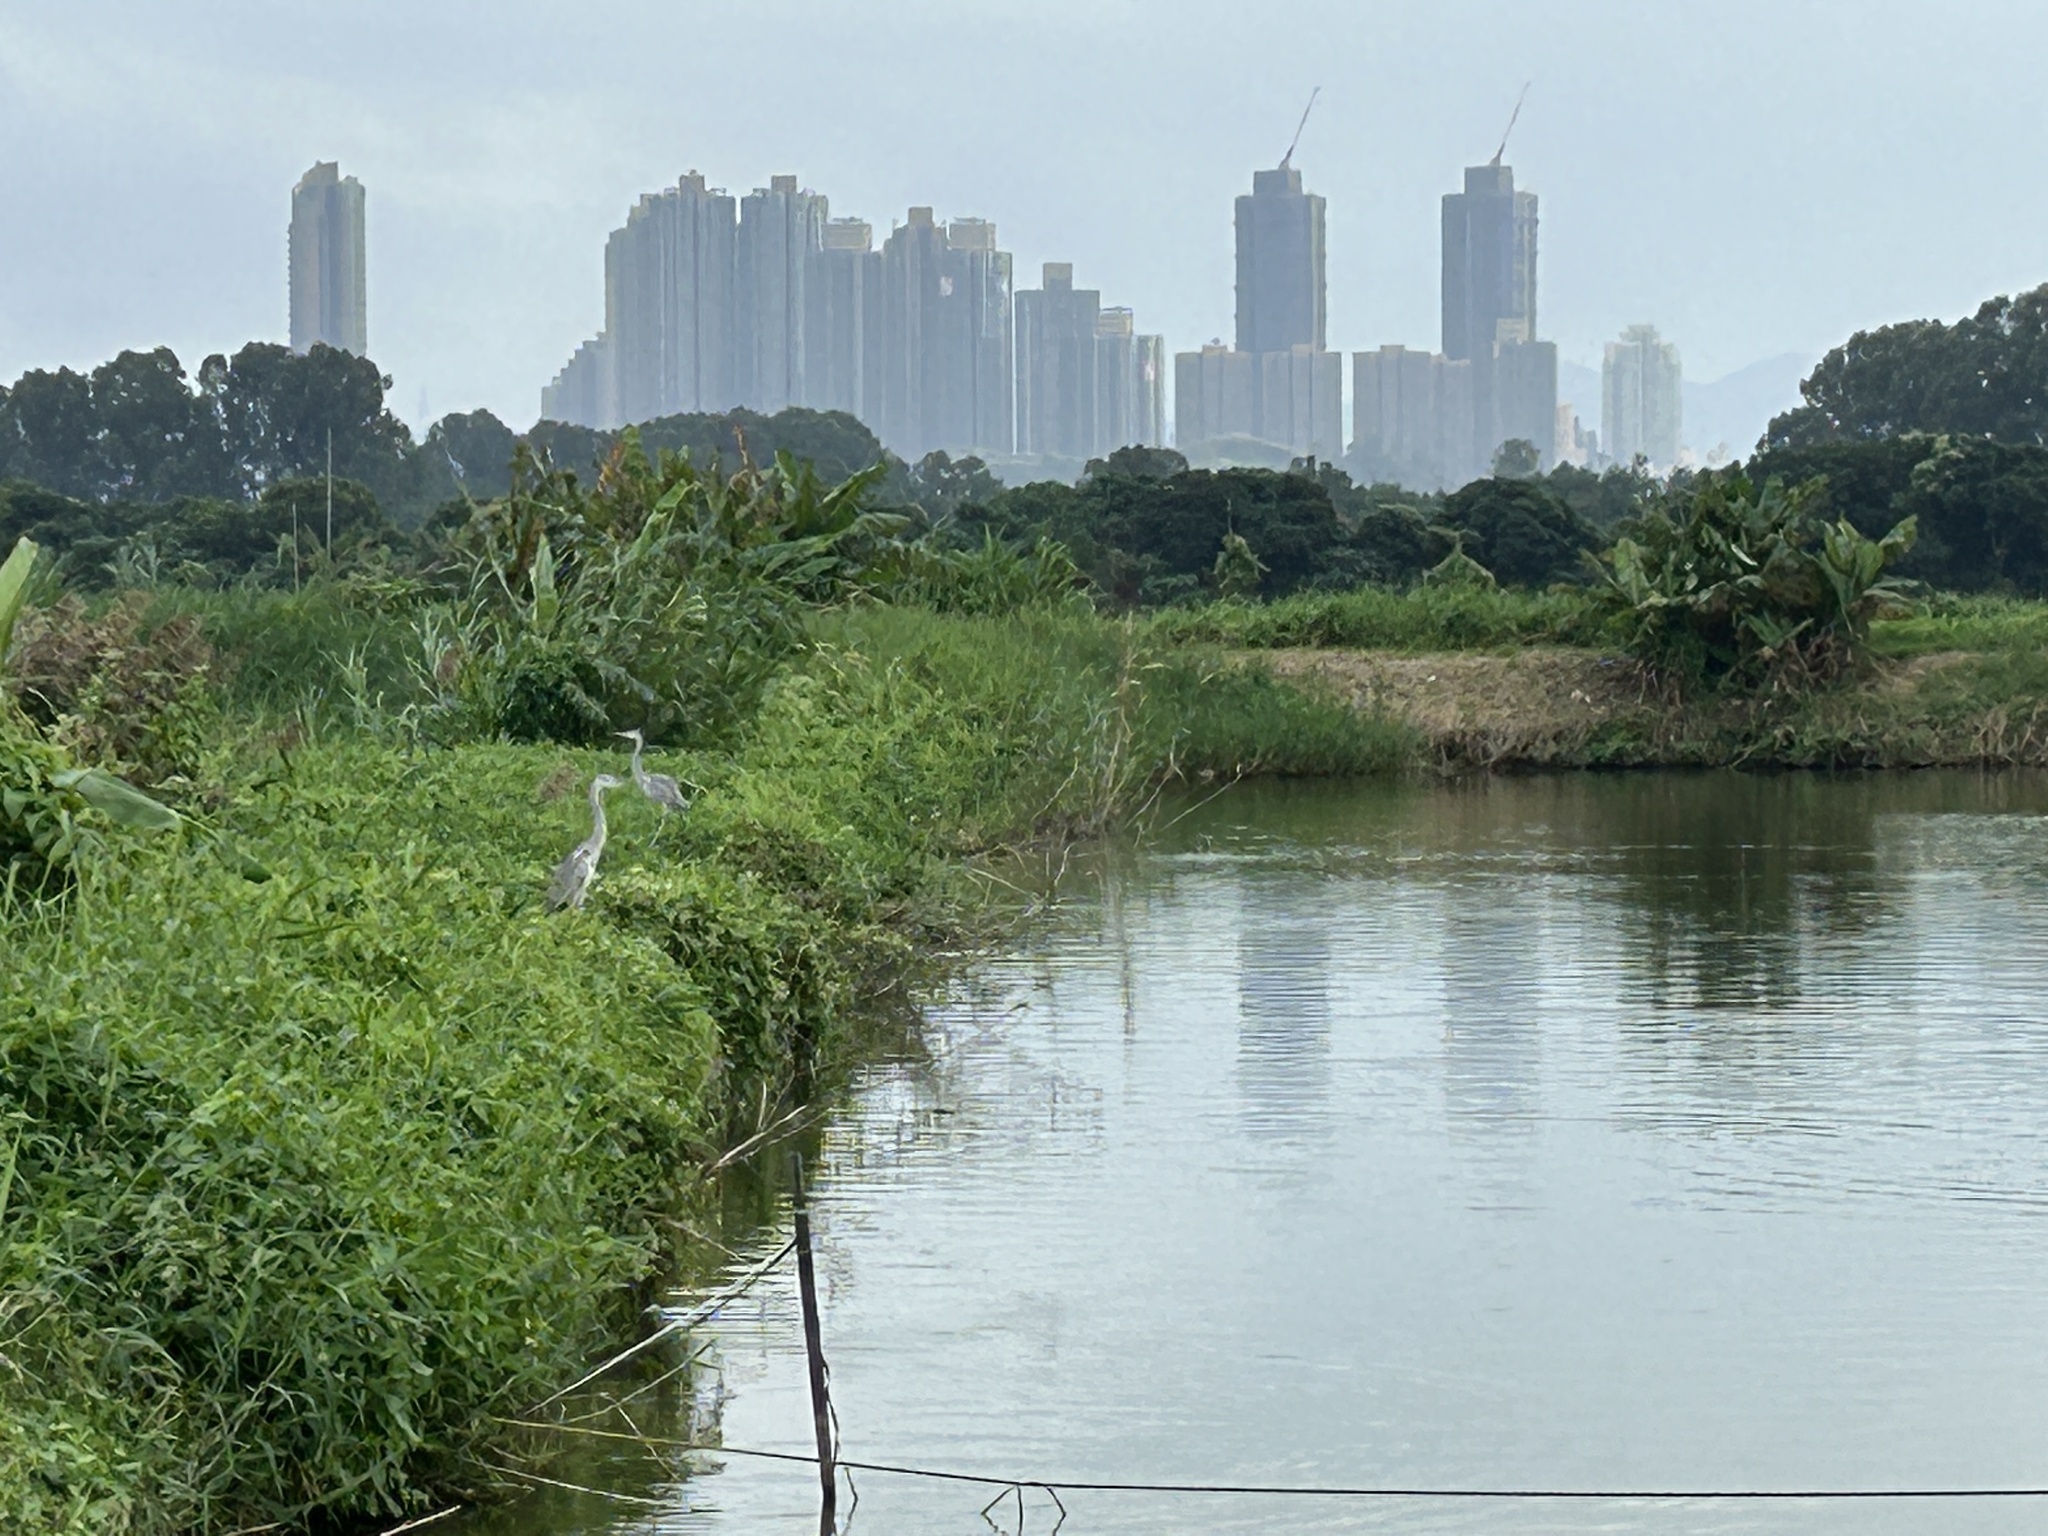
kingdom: Animalia
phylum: Chordata
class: Aves
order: Pelecaniformes
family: Ardeidae
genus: Ardea
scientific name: Ardea cinerea
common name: Grey heron
